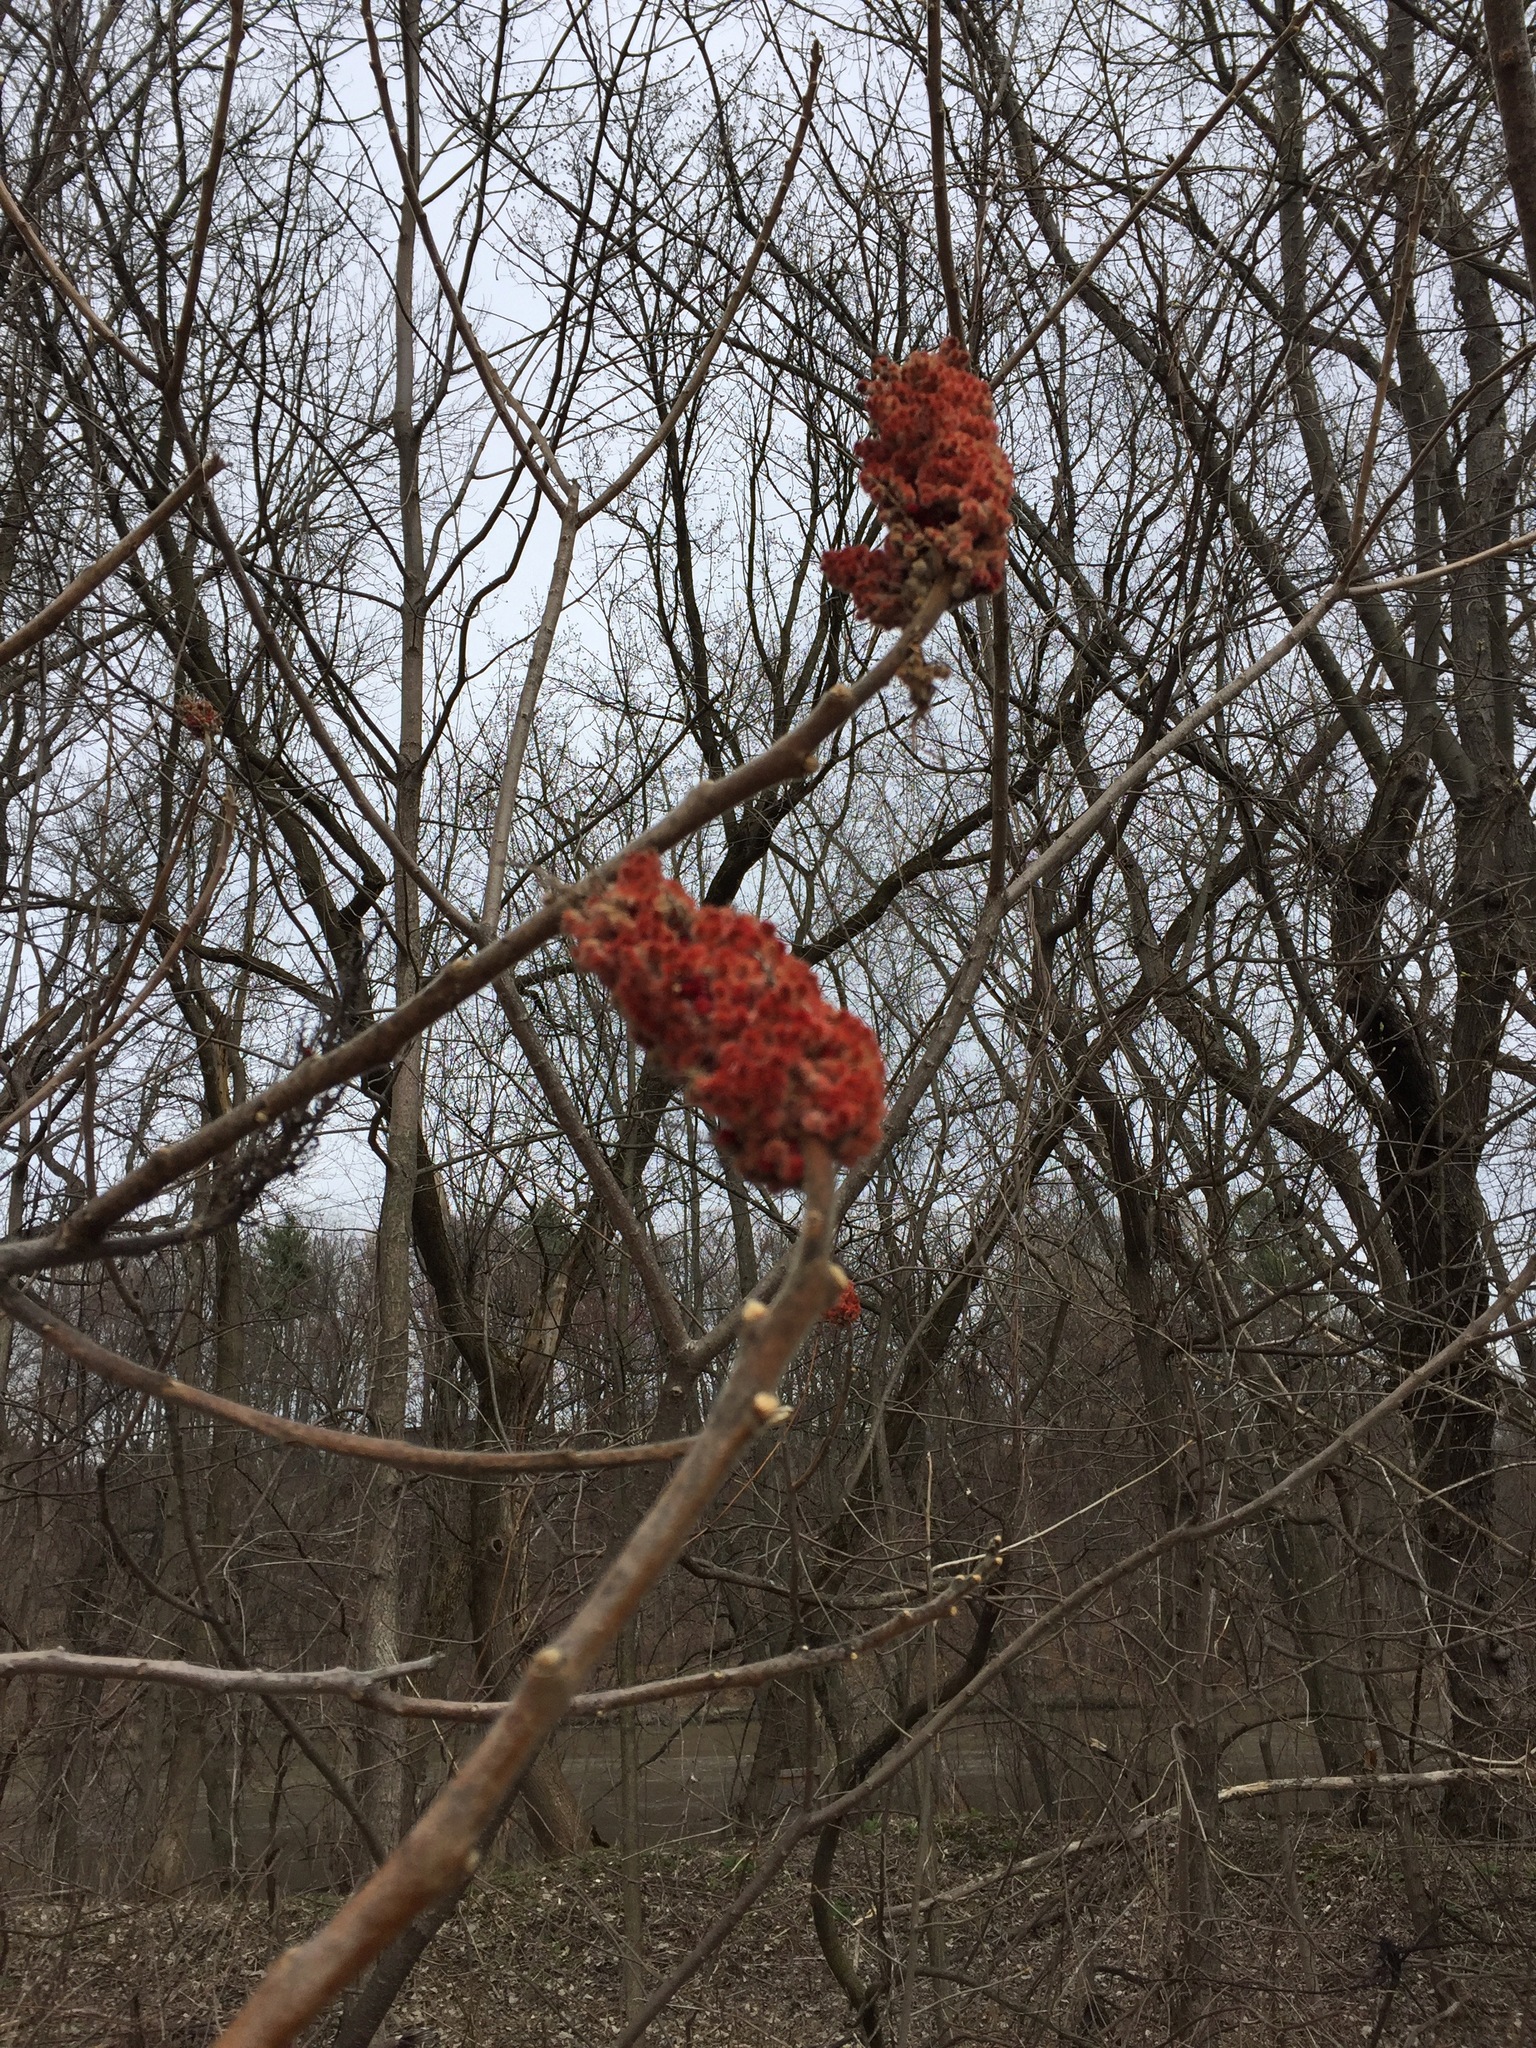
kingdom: Plantae
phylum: Tracheophyta
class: Magnoliopsida
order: Sapindales
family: Anacardiaceae
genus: Rhus
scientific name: Rhus typhina
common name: Staghorn sumac
